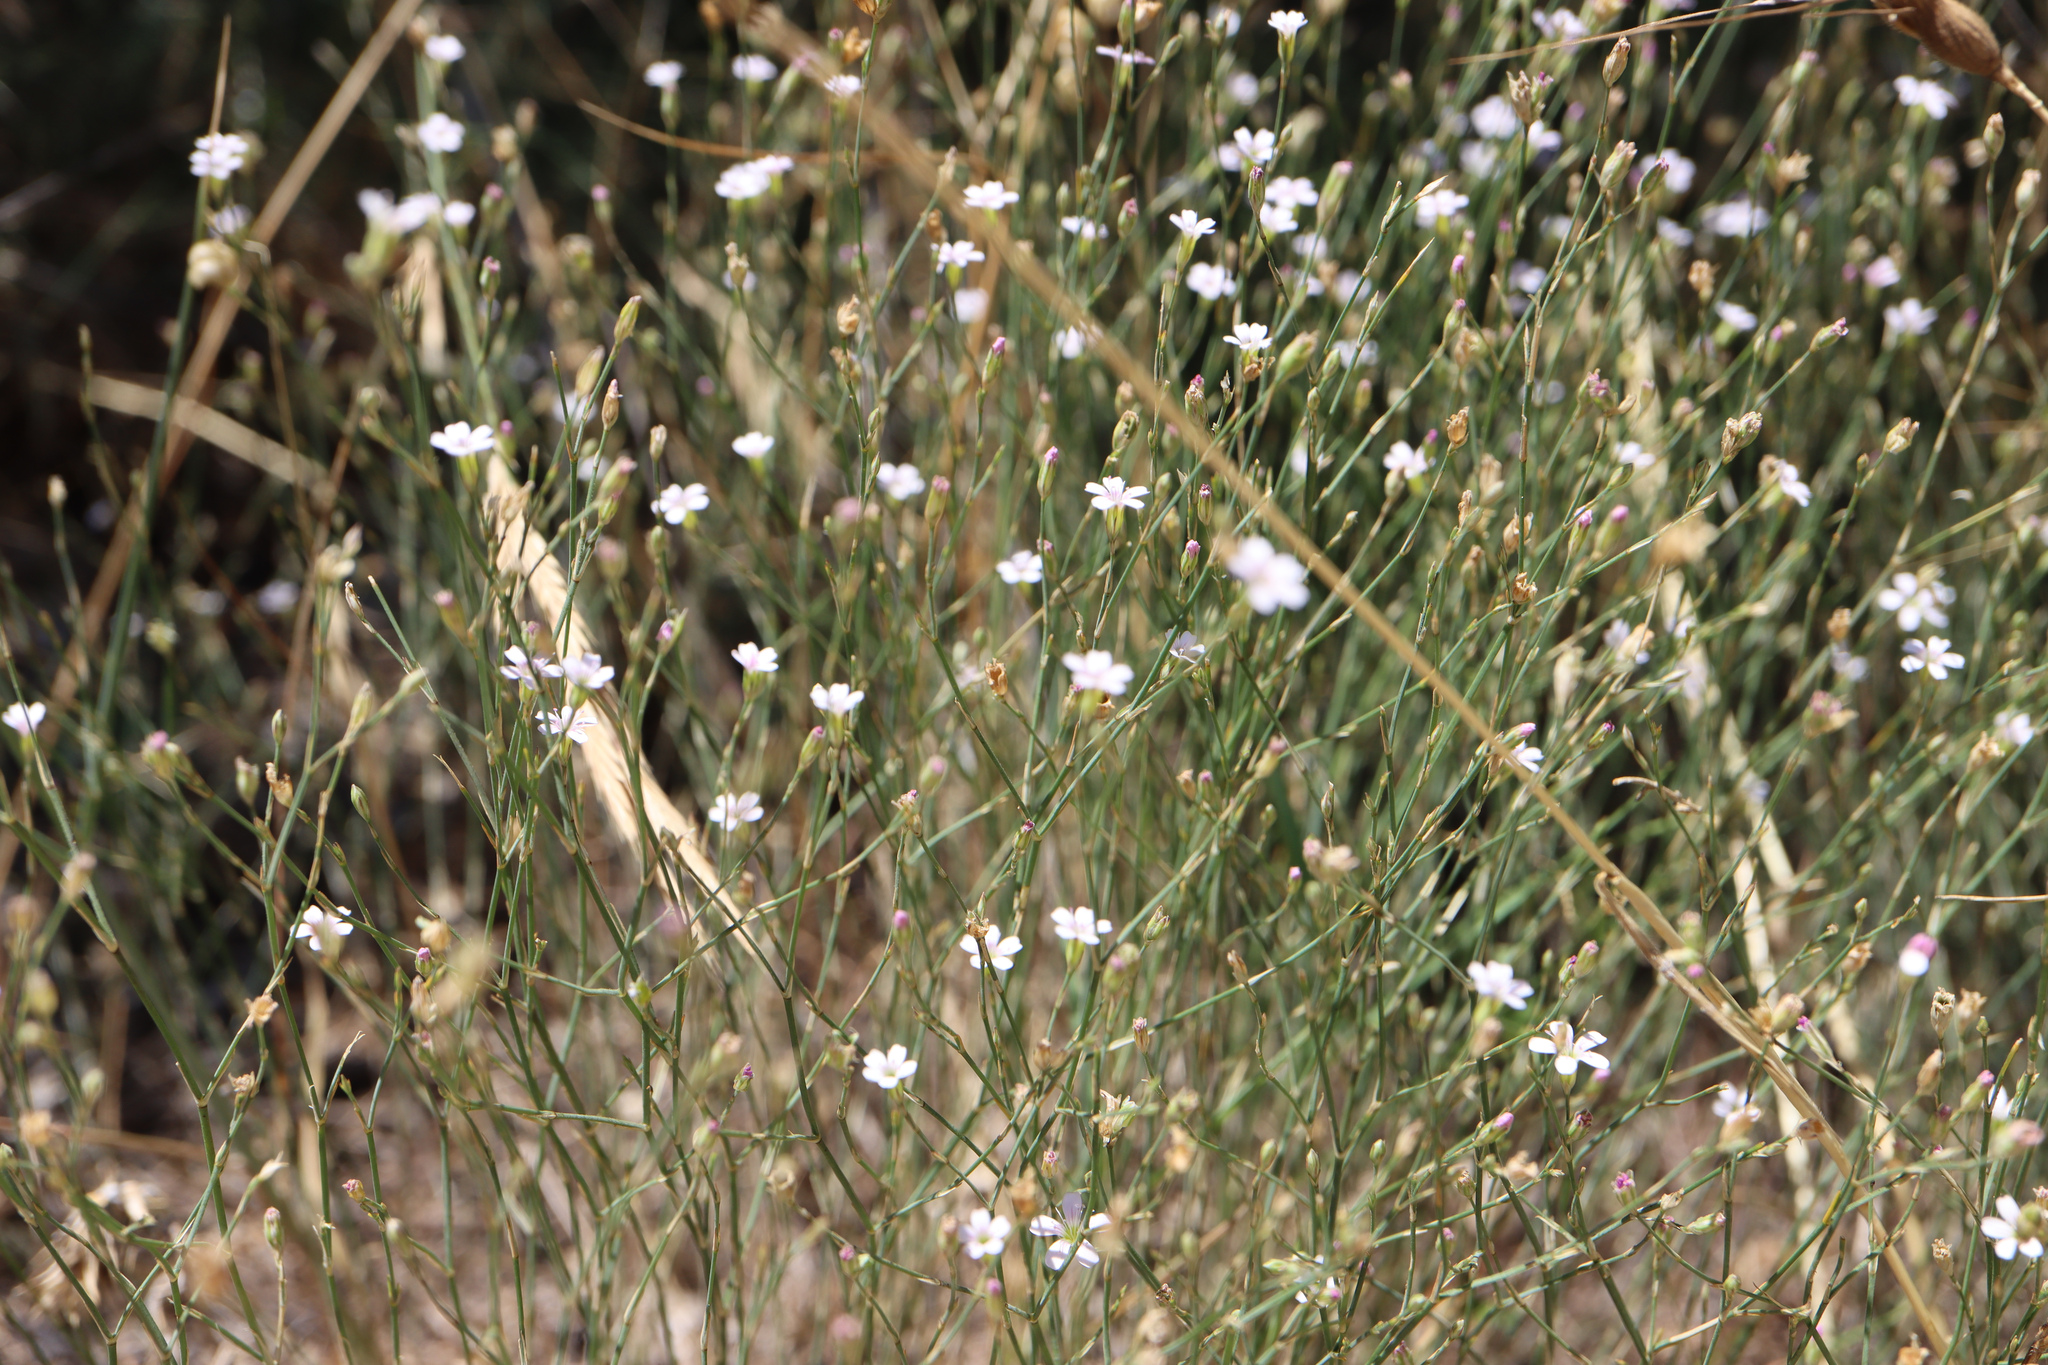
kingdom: Plantae
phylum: Tracheophyta
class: Magnoliopsida
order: Caryophyllales
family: Caryophyllaceae
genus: Petrorhagia
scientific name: Petrorhagia saxifraga
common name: Tunicflower
